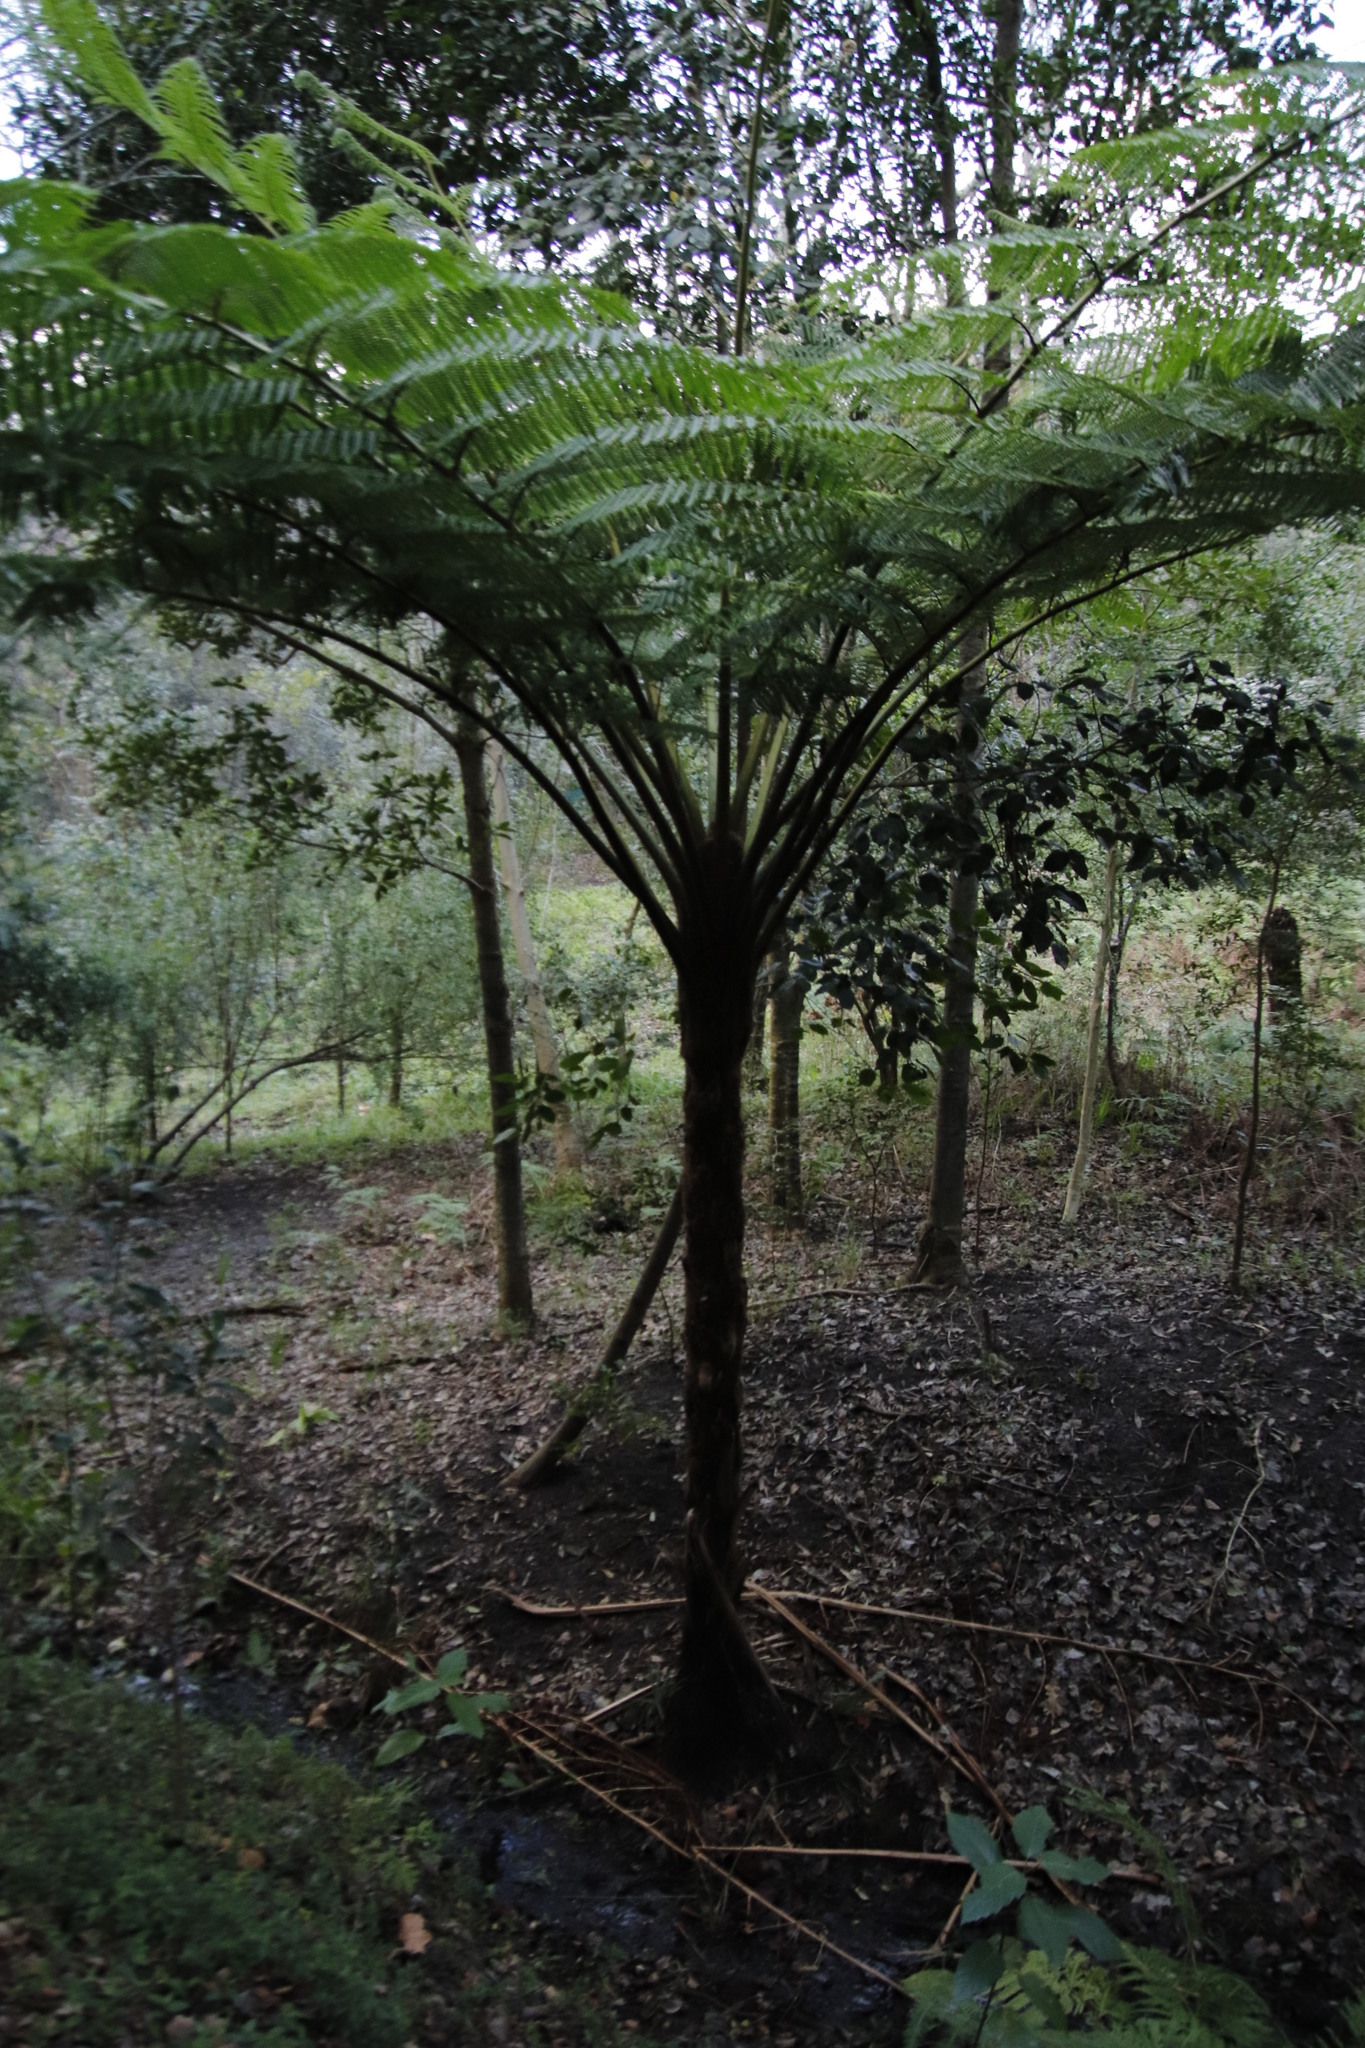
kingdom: Plantae
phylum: Tracheophyta
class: Polypodiopsida
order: Cyatheales
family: Cyatheaceae
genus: Sphaeropteris
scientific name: Sphaeropteris cooperi
